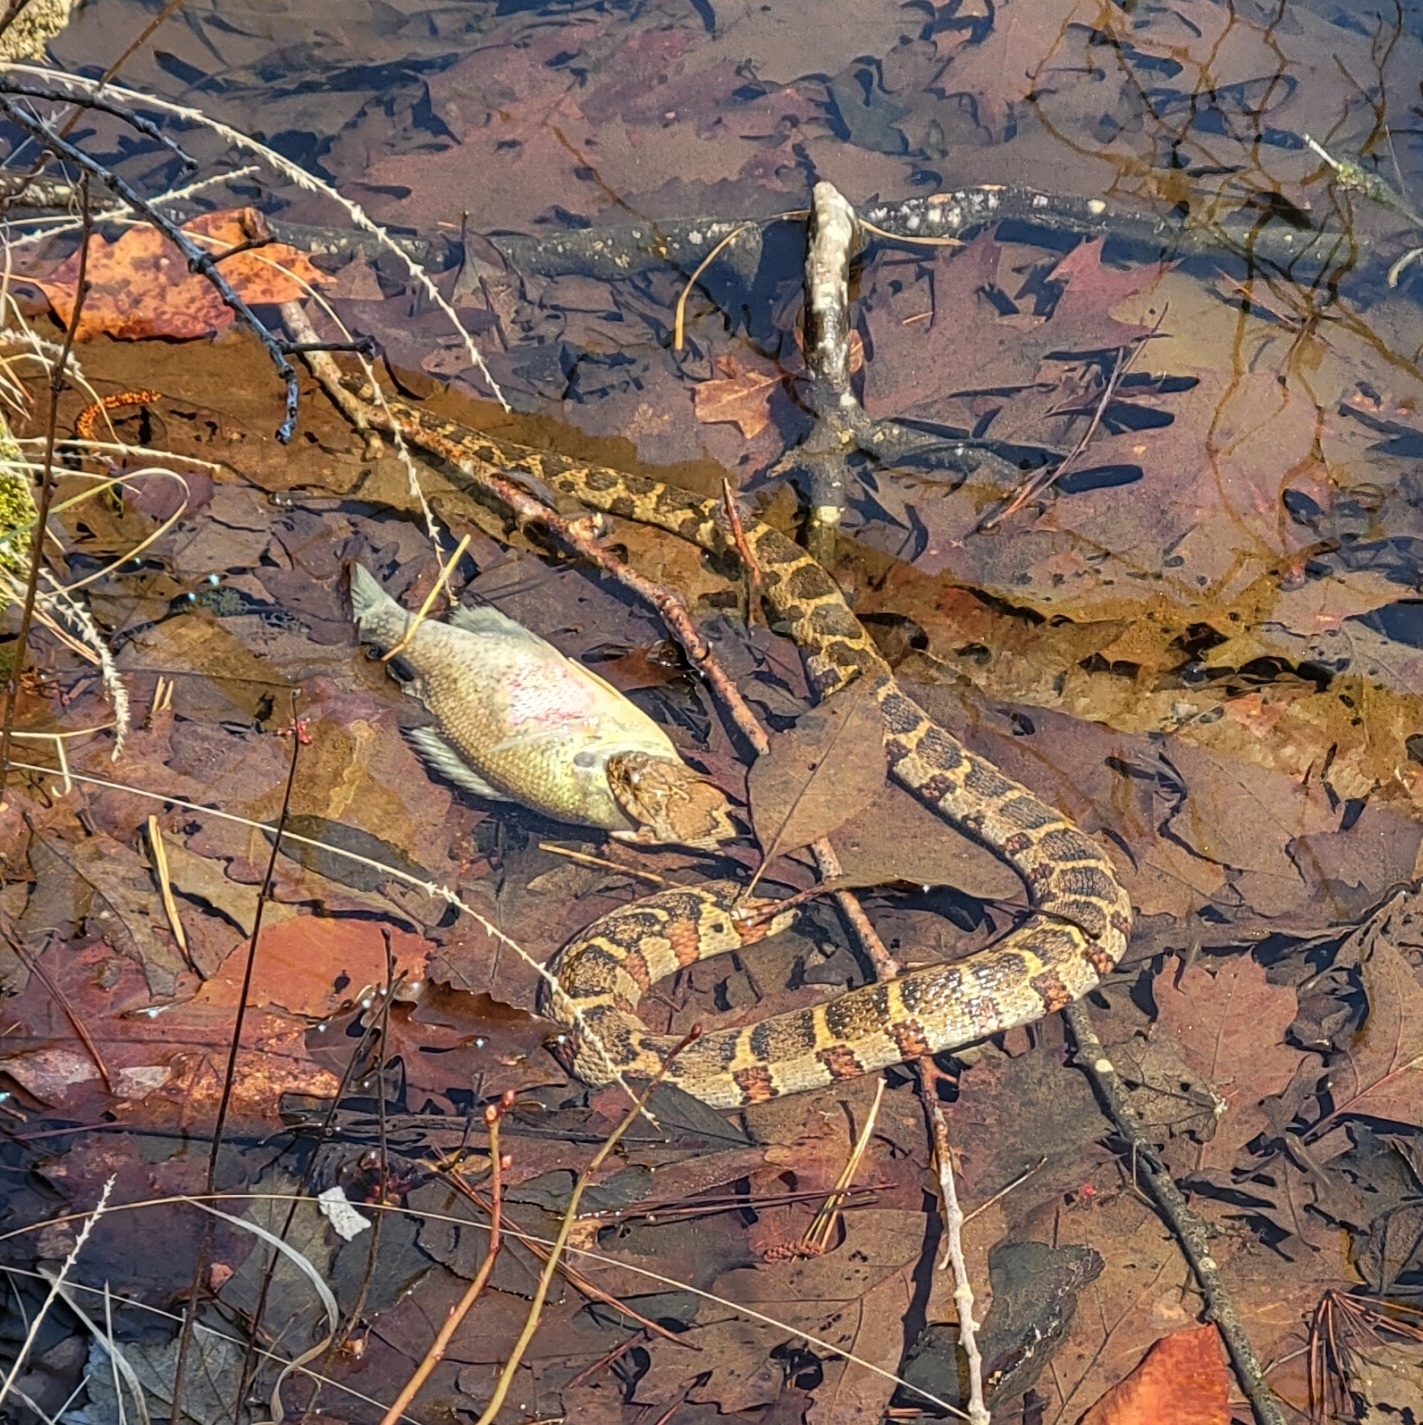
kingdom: Animalia
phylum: Chordata
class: Squamata
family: Colubridae
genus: Nerodia
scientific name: Nerodia sipedon
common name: Northern water snake
